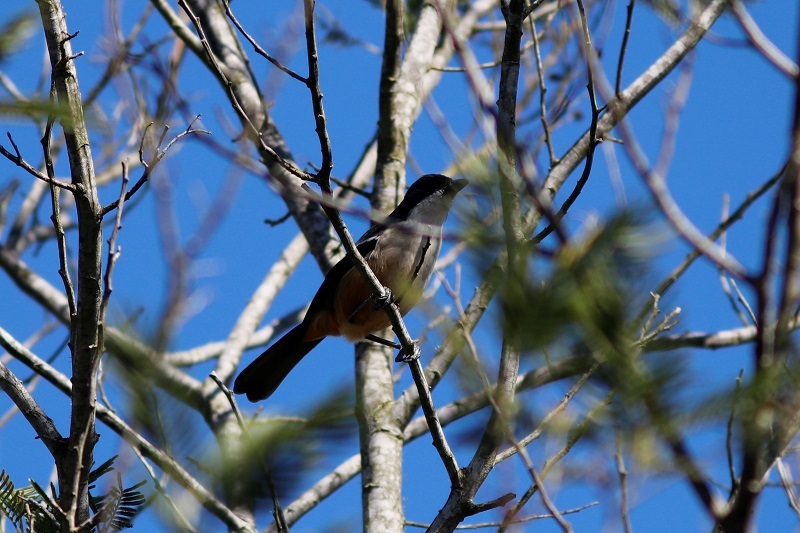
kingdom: Animalia
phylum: Chordata
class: Aves
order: Passeriformes
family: Malaconotidae
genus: Laniarius
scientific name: Laniarius ferrugineus
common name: Southern boubou
